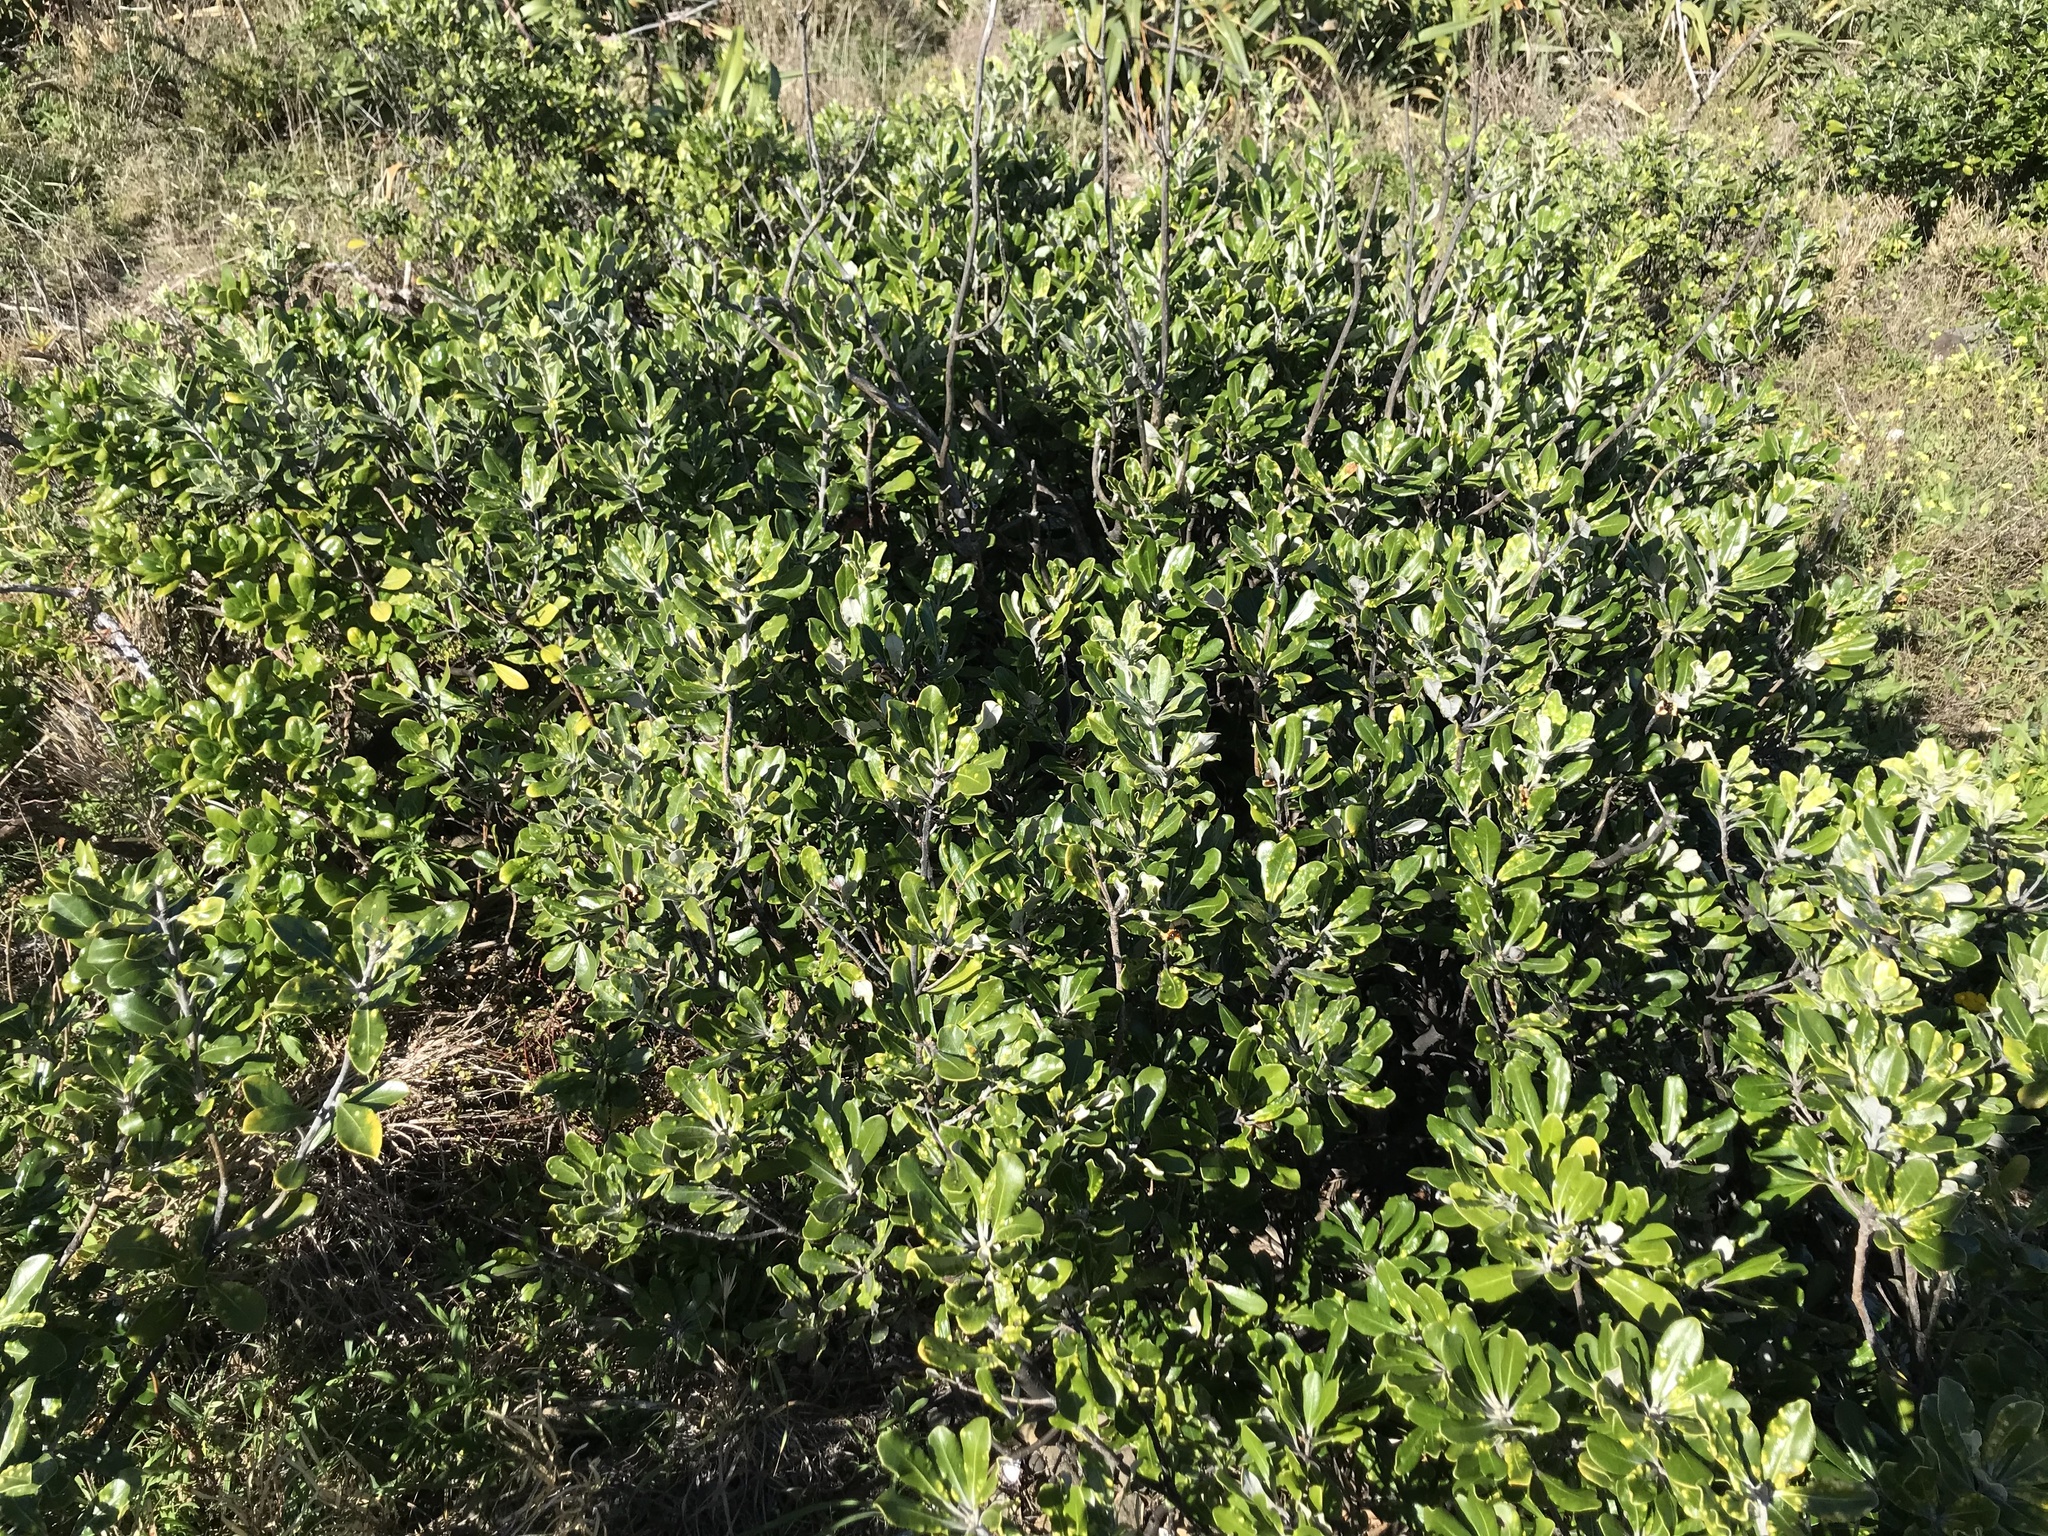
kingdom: Plantae
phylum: Tracheophyta
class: Magnoliopsida
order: Apiales
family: Pittosporaceae
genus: Pittosporum
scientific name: Pittosporum crassifolium
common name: Karo
